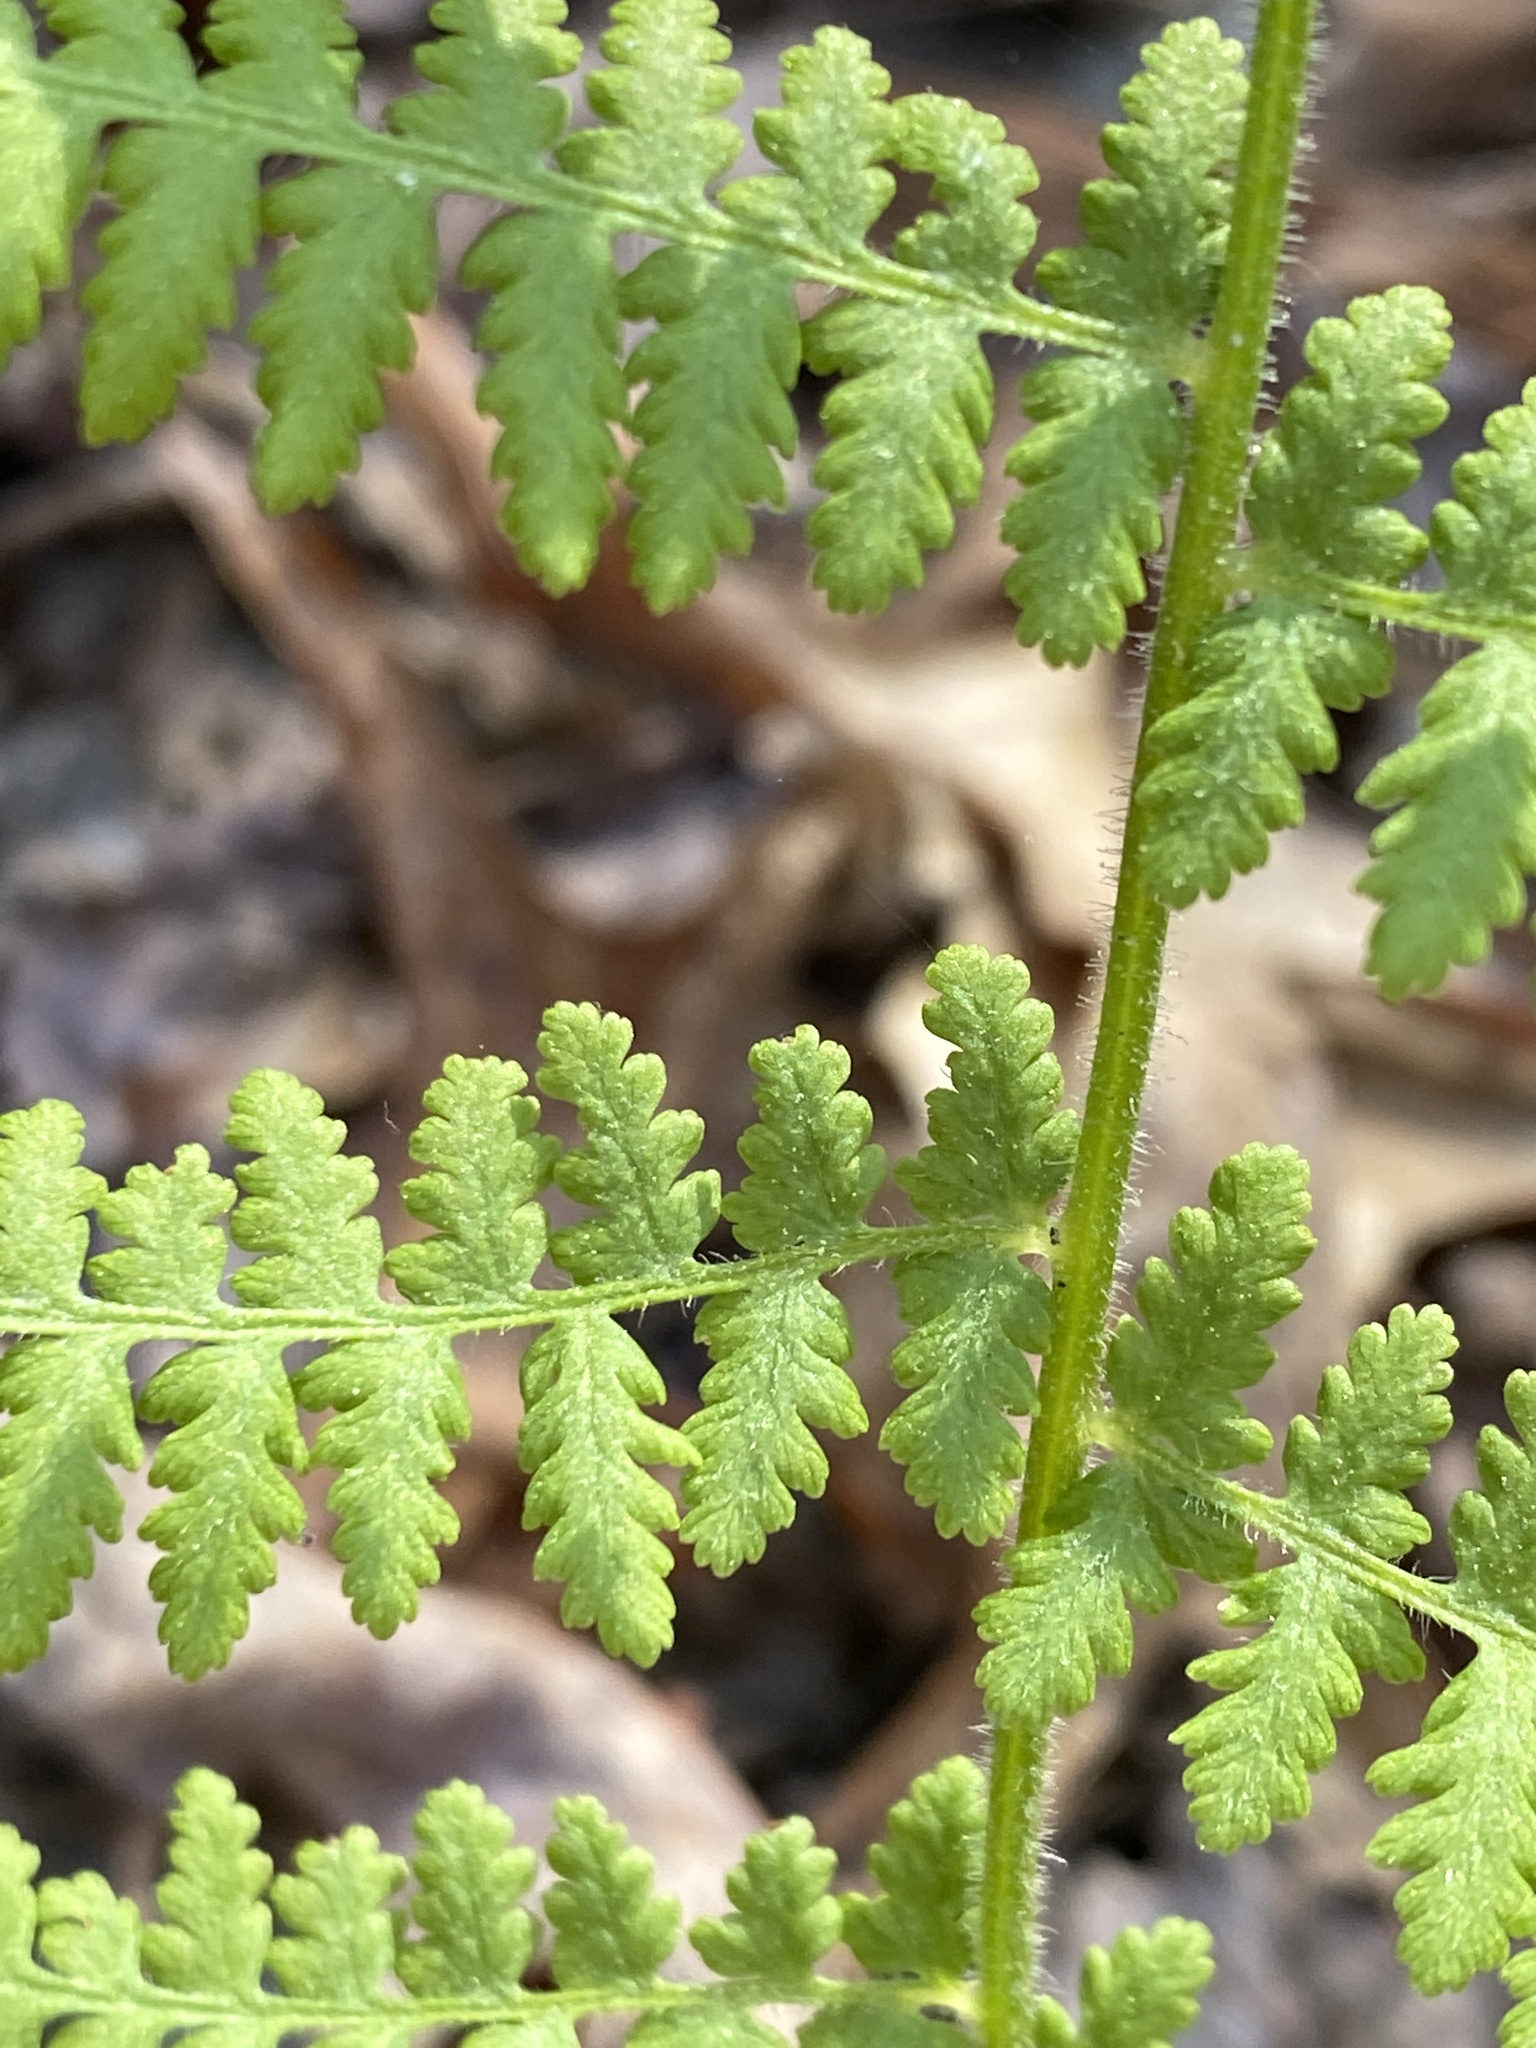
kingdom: Plantae
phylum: Tracheophyta
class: Polypodiopsida
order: Polypodiales
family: Dennstaedtiaceae
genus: Sitobolium
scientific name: Sitobolium punctilobum
